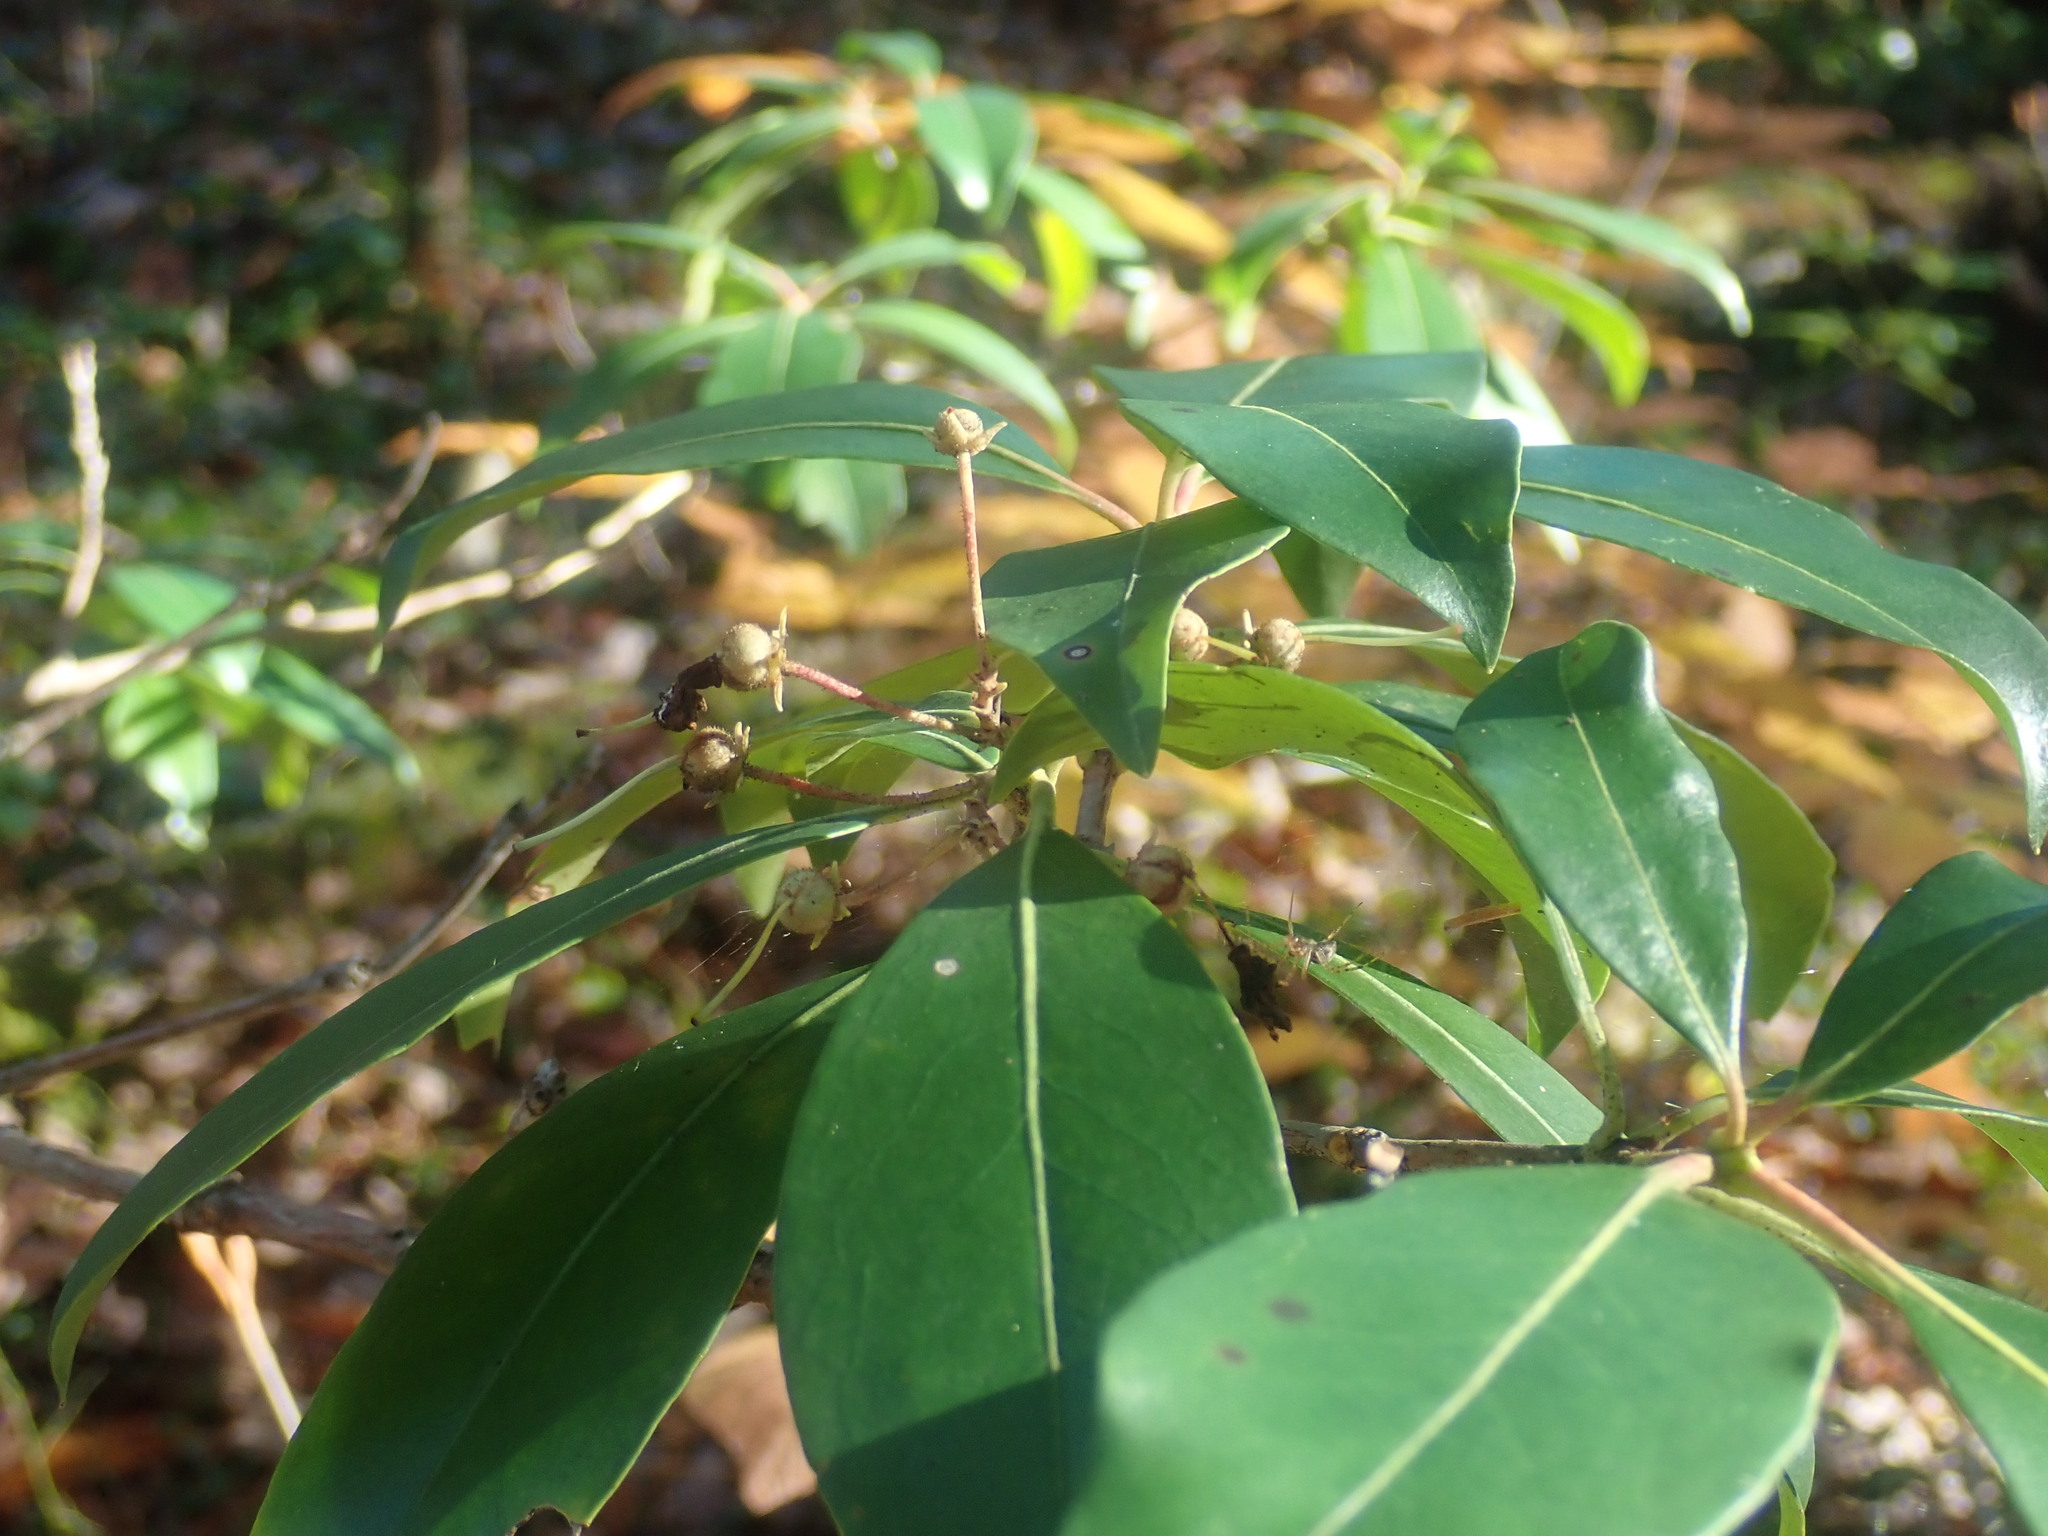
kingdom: Plantae
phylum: Tracheophyta
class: Magnoliopsida
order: Ericales
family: Ericaceae
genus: Kalmia
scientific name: Kalmia latifolia
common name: Mountain-laurel
